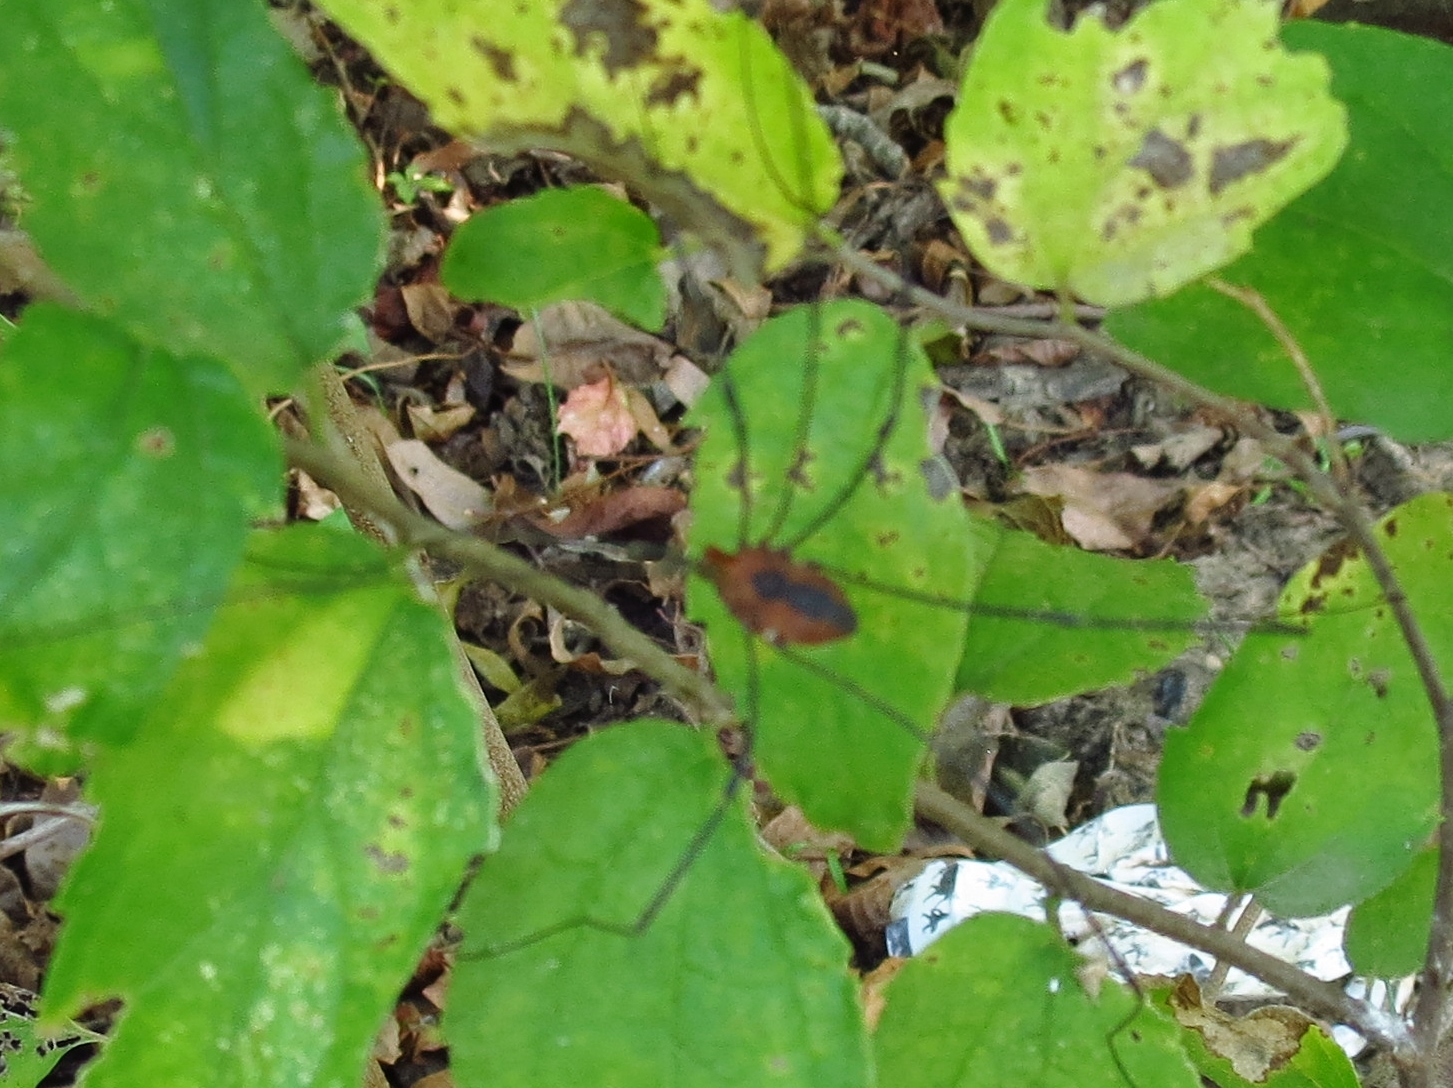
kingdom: Animalia
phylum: Arthropoda
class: Arachnida
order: Opiliones
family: Sclerosomatidae
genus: Leiobunum
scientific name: Leiobunum vittatum
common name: Eastern harvestman
